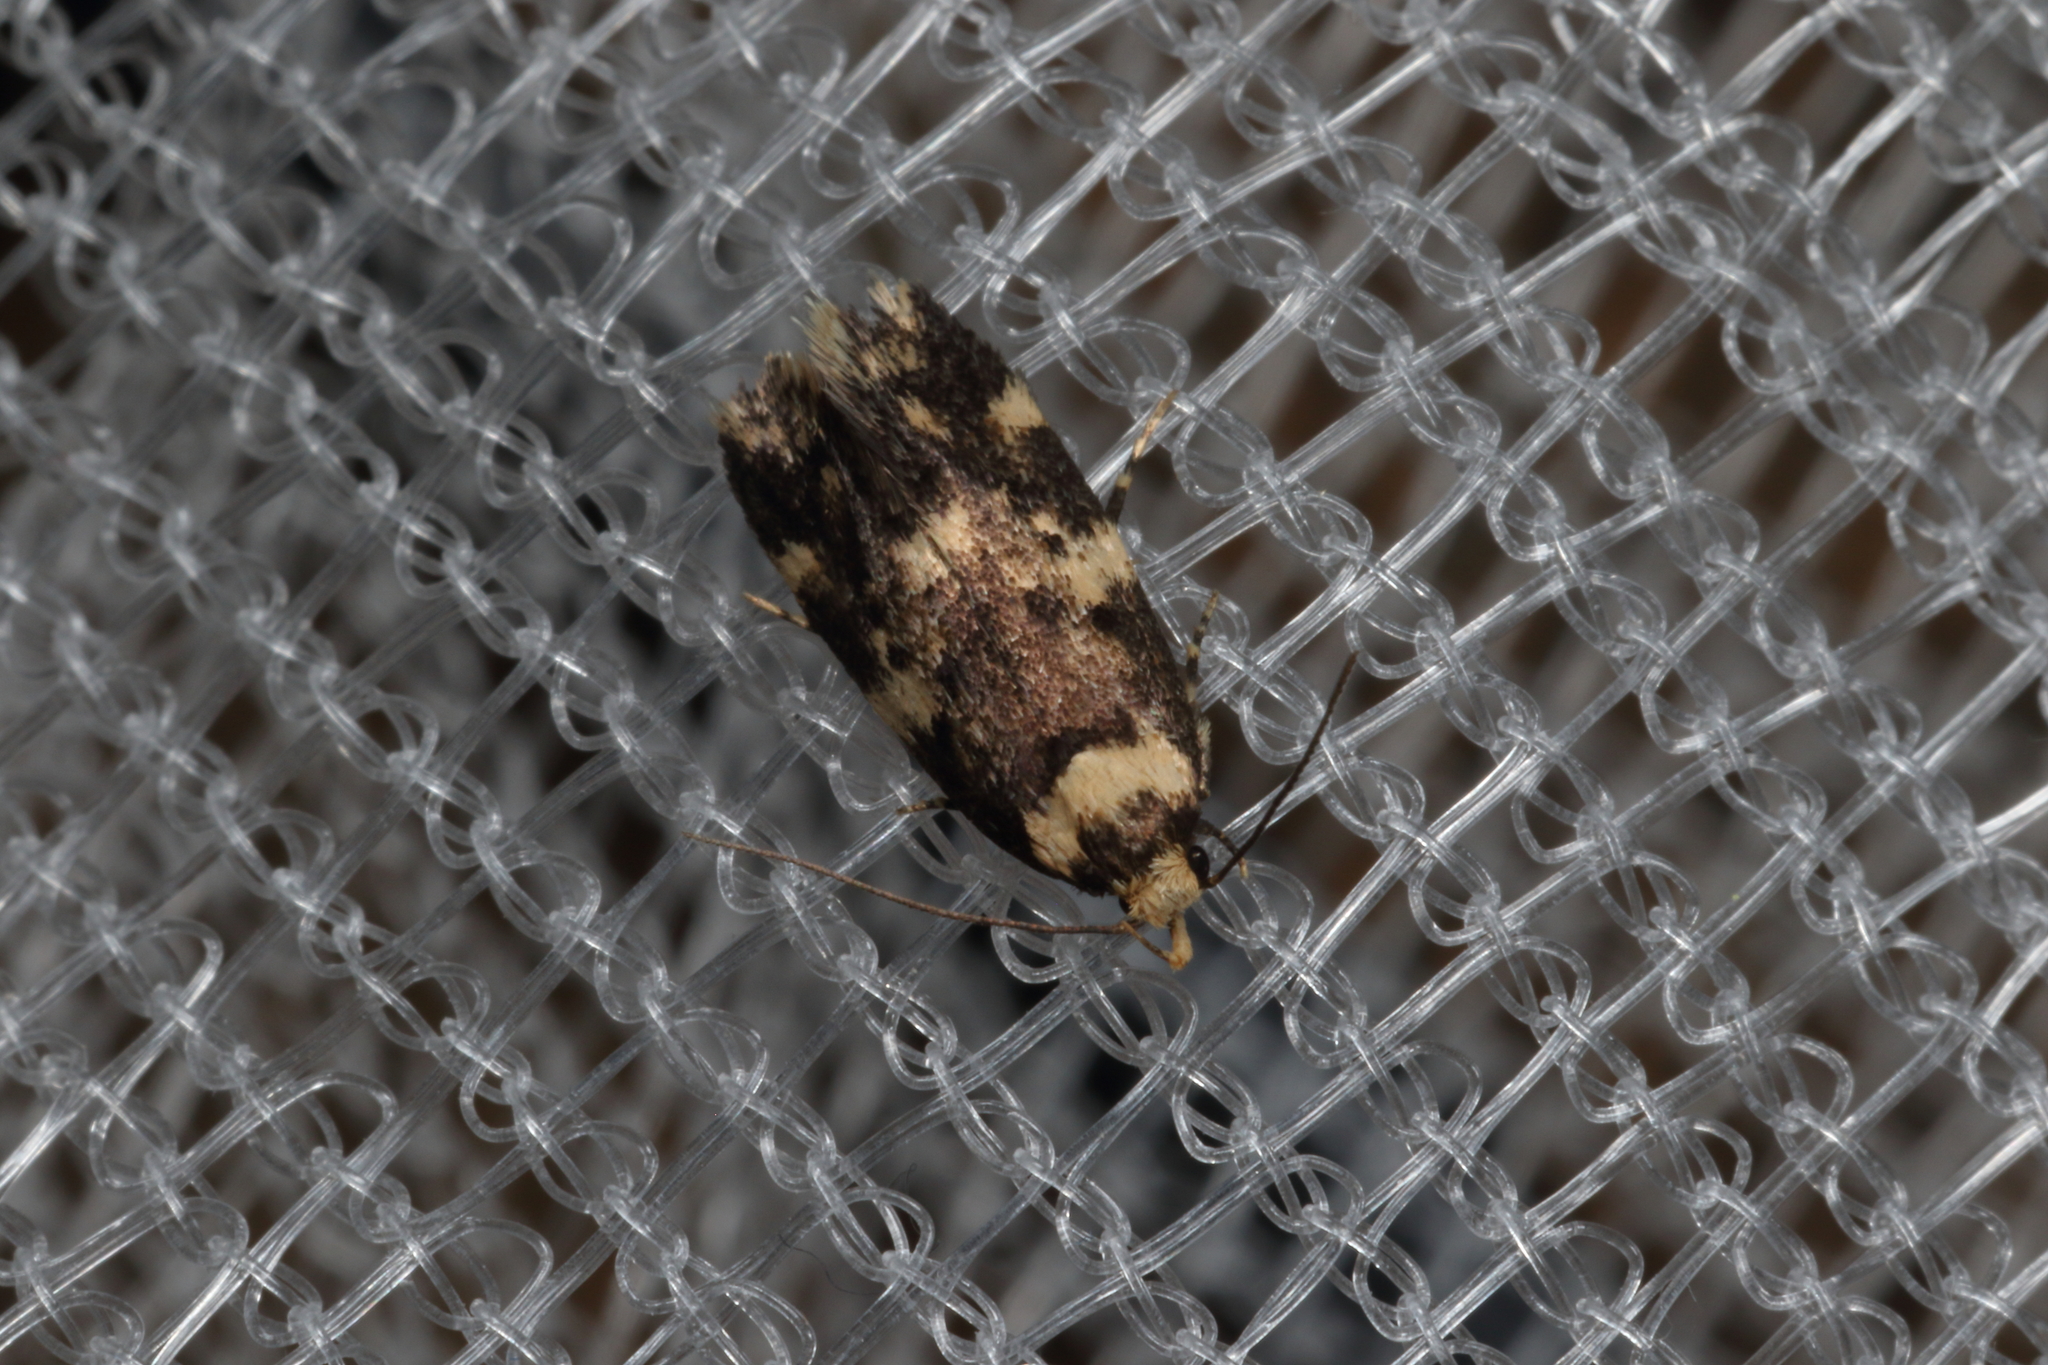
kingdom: Animalia
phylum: Arthropoda
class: Insecta
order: Lepidoptera
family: Oecophoridae
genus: Sphyrelata
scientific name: Sphyrelata amotella
